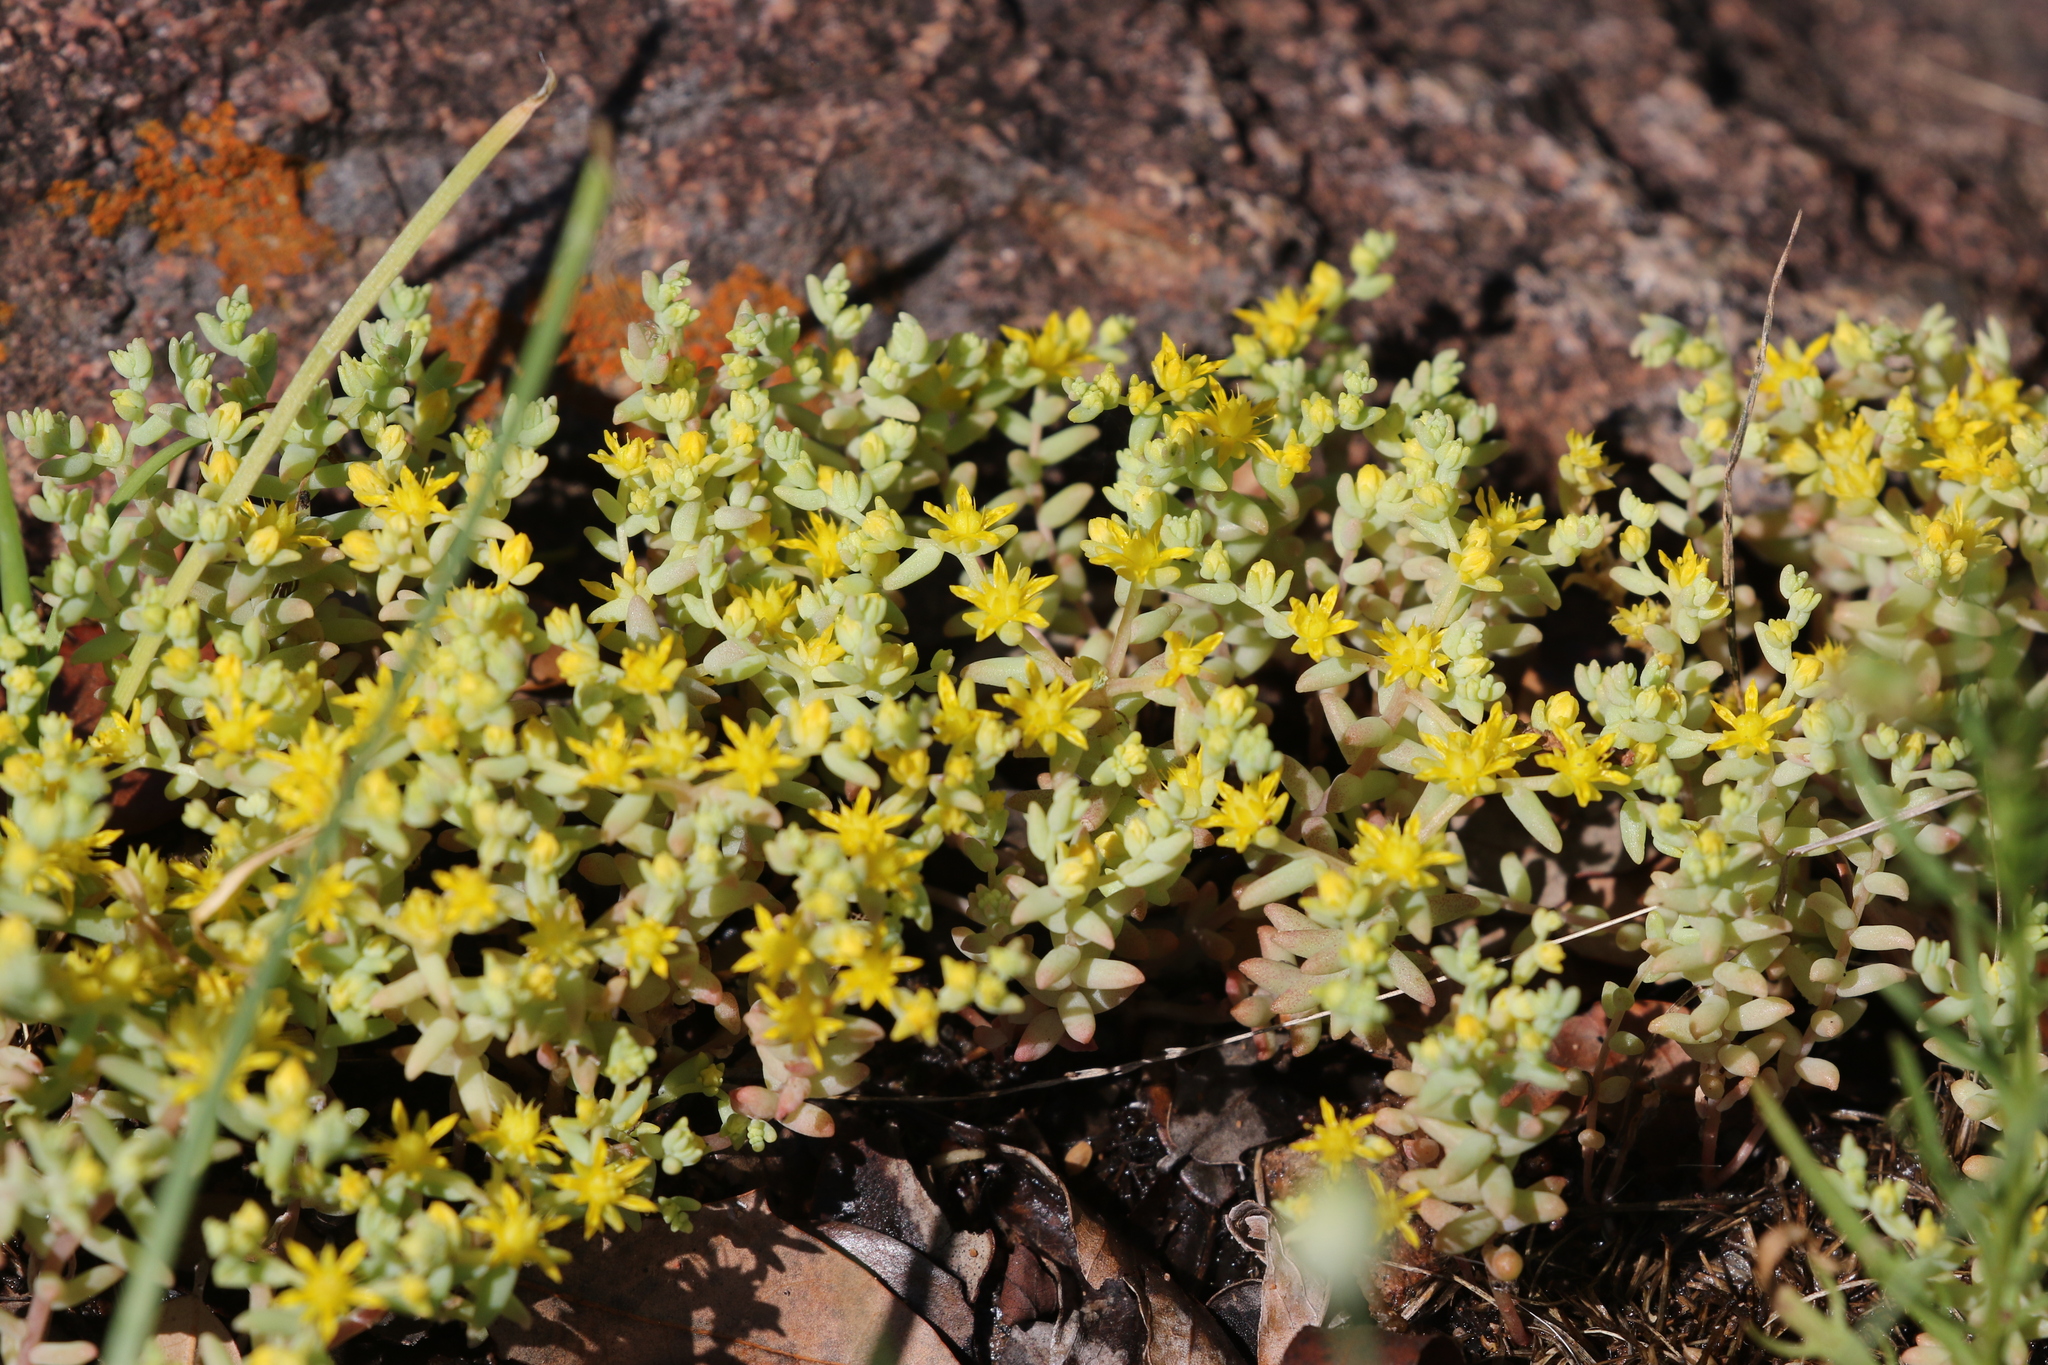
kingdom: Plantae
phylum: Tracheophyta
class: Magnoliopsida
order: Saxifragales
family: Crassulaceae
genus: Sedum
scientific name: Sedum nuttallii
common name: Yellow stonecrop
